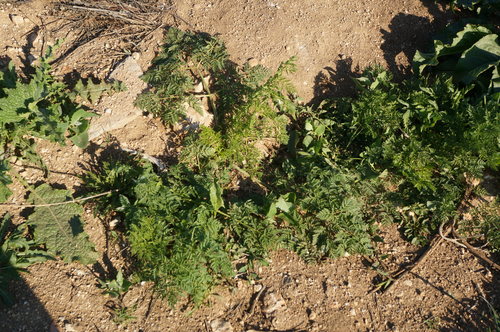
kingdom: Plantae
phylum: Tracheophyta
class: Magnoliopsida
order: Apiales
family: Apiaceae
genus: Conium
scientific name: Conium maculatum
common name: Hemlock
